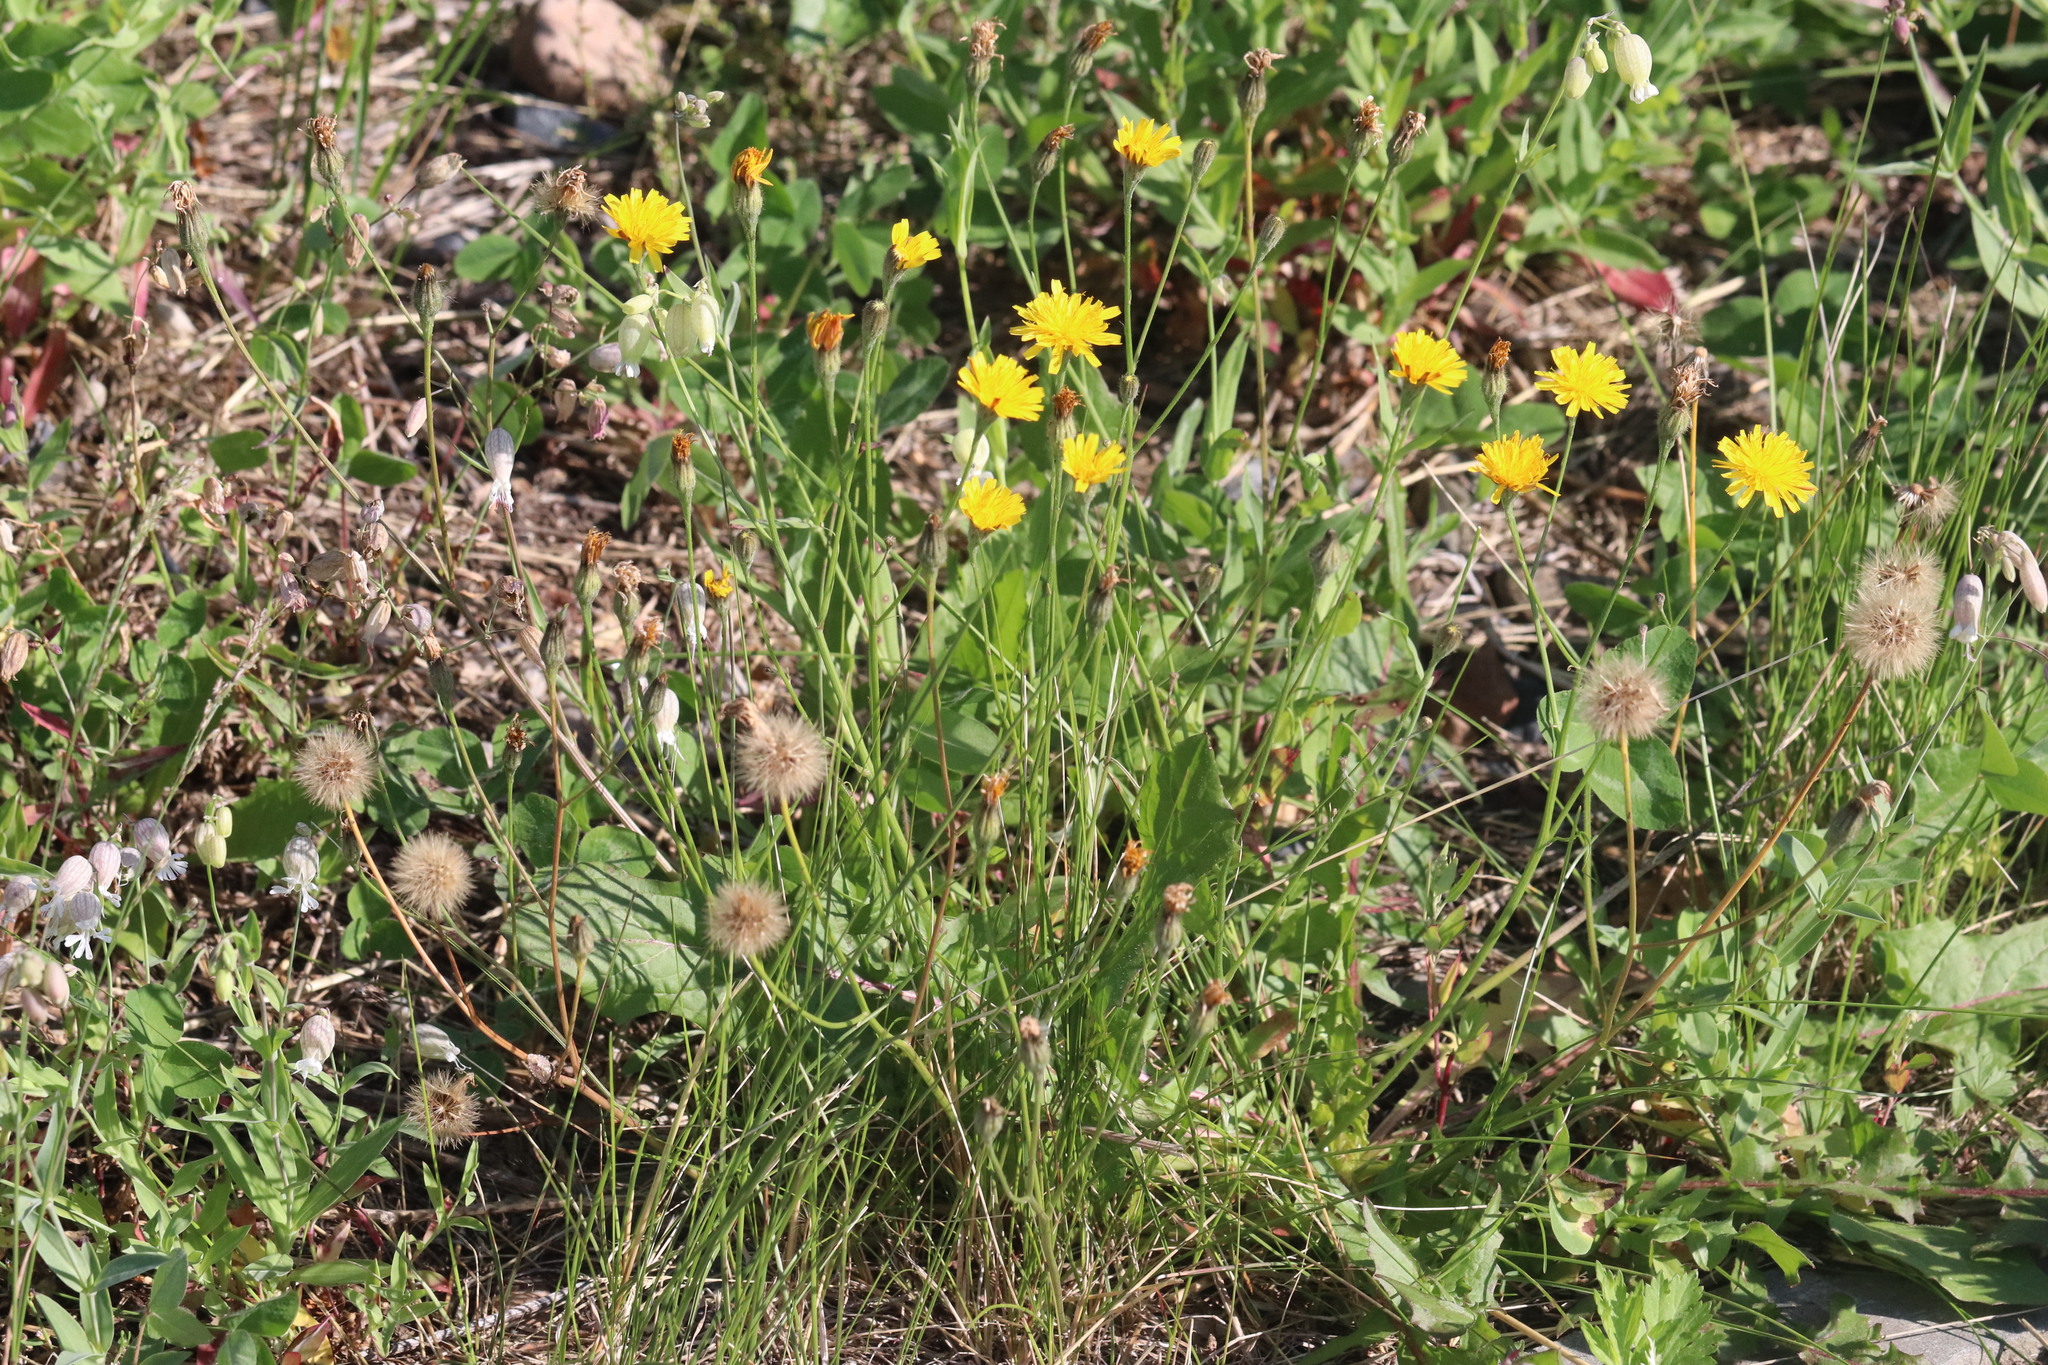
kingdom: Plantae
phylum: Tracheophyta
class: Magnoliopsida
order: Asterales
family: Asteraceae
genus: Scorzoneroides
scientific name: Scorzoneroides autumnalis
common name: Autumn hawkbit
